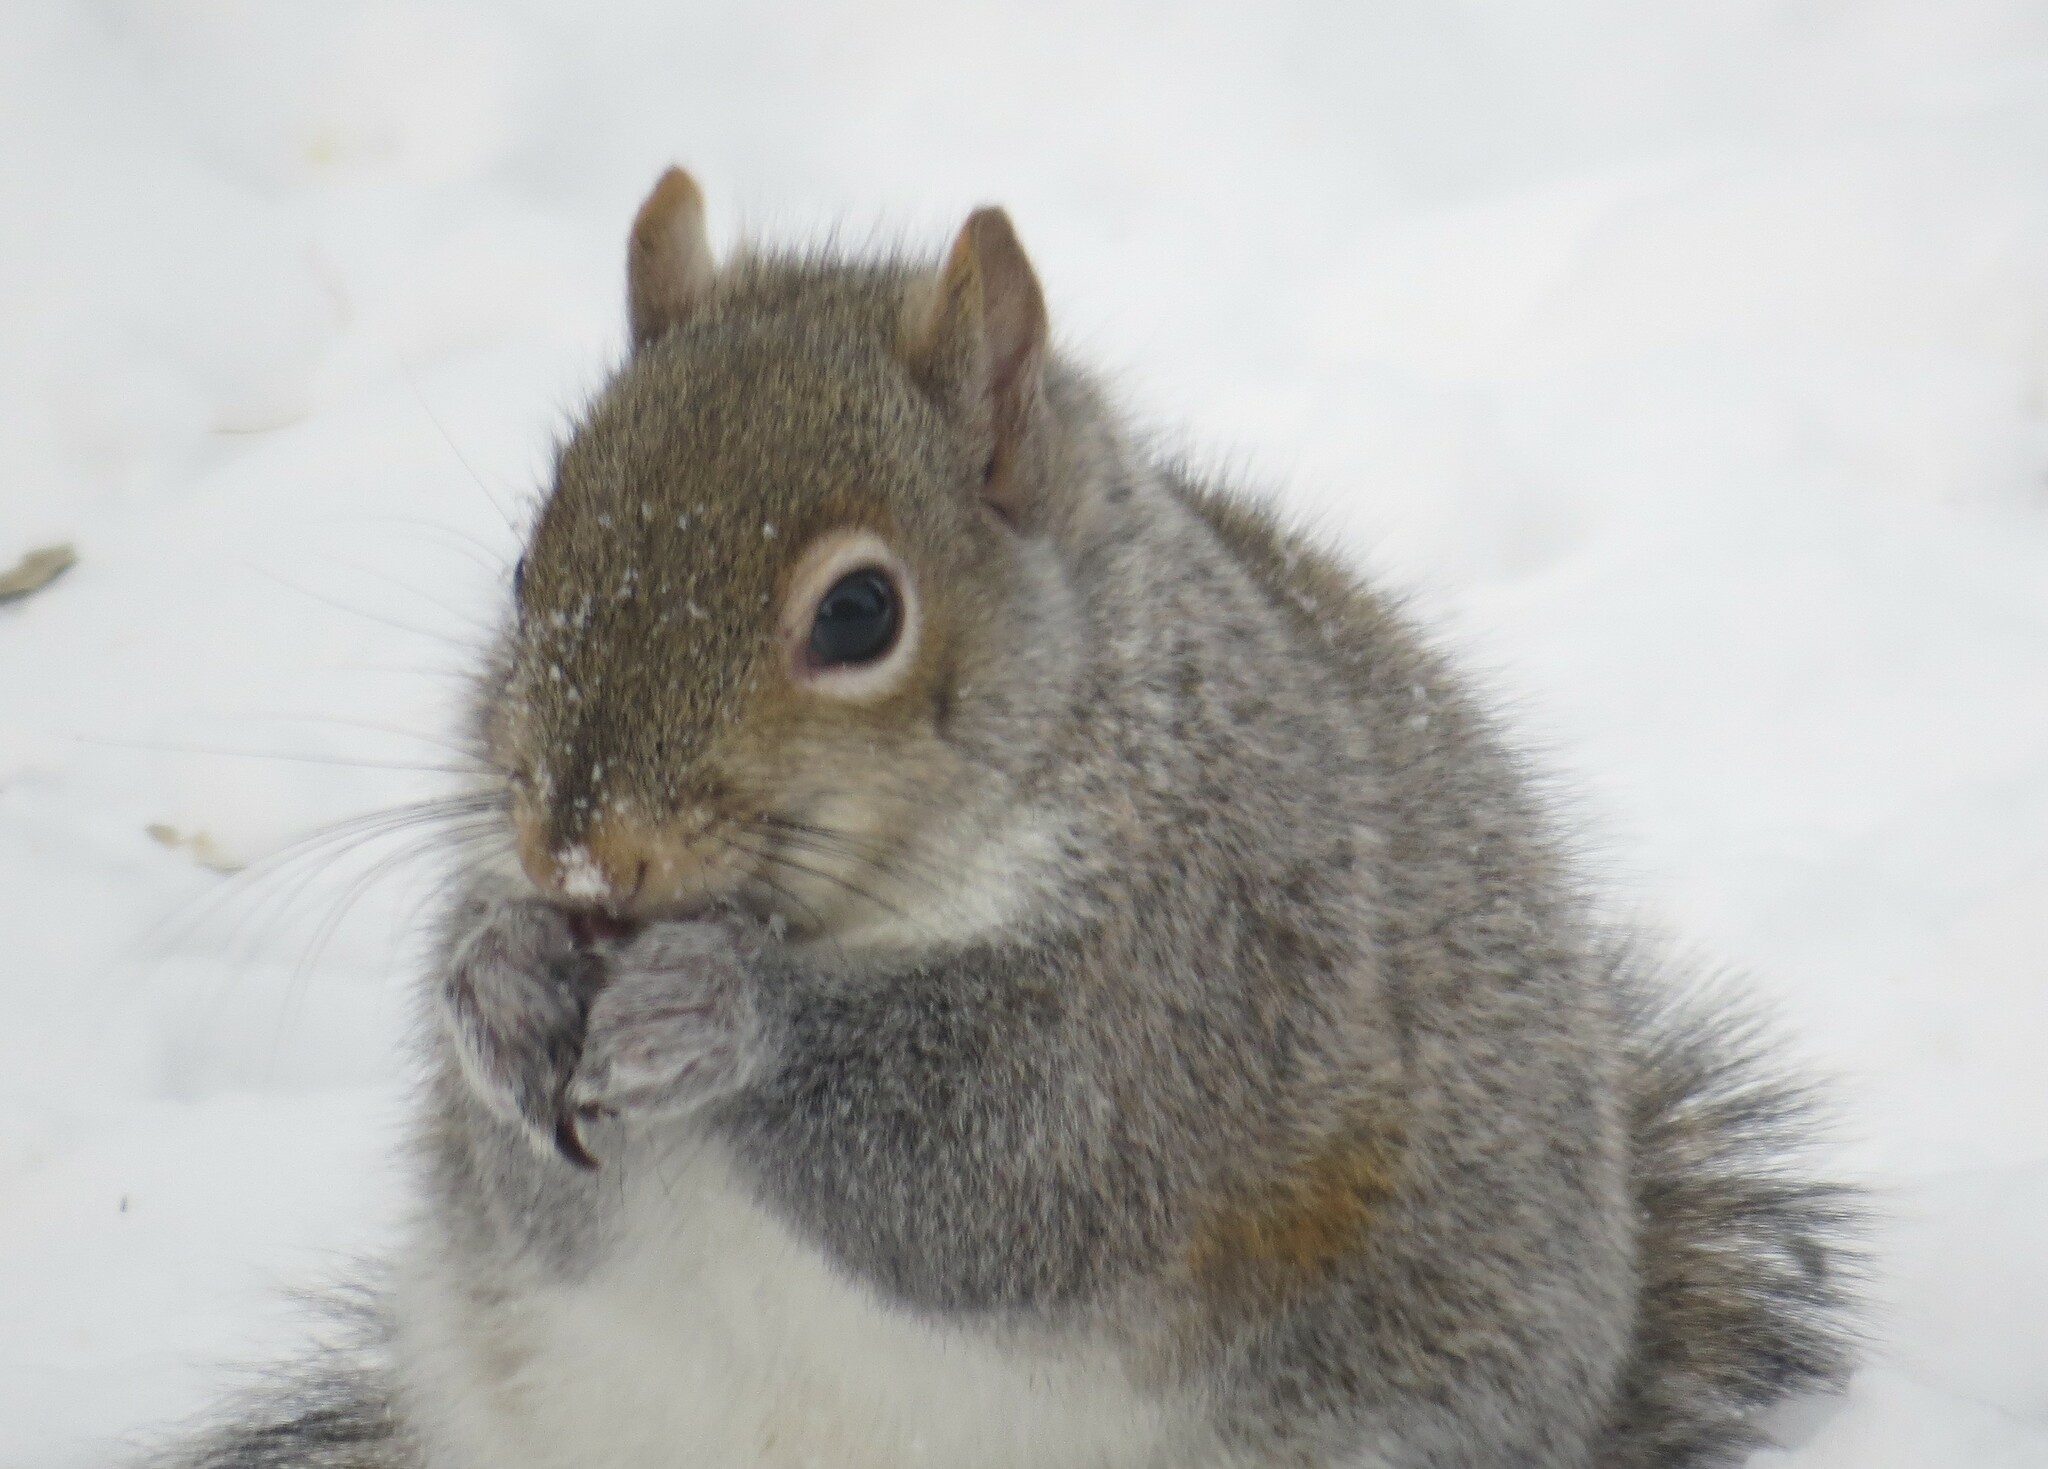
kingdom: Animalia
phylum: Chordata
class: Mammalia
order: Rodentia
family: Sciuridae
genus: Sciurus
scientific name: Sciurus carolinensis
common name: Eastern gray squirrel
